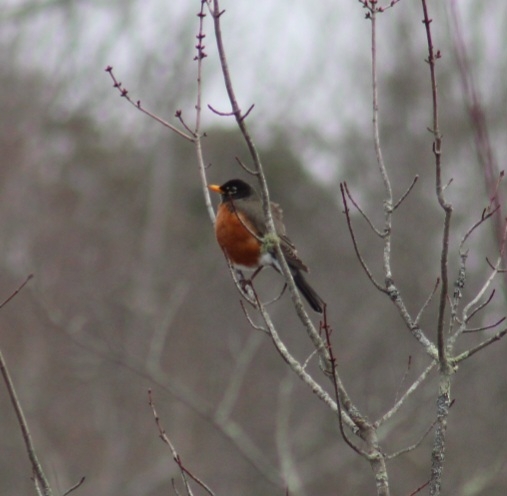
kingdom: Animalia
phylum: Chordata
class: Aves
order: Passeriformes
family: Turdidae
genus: Turdus
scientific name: Turdus migratorius
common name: American robin
